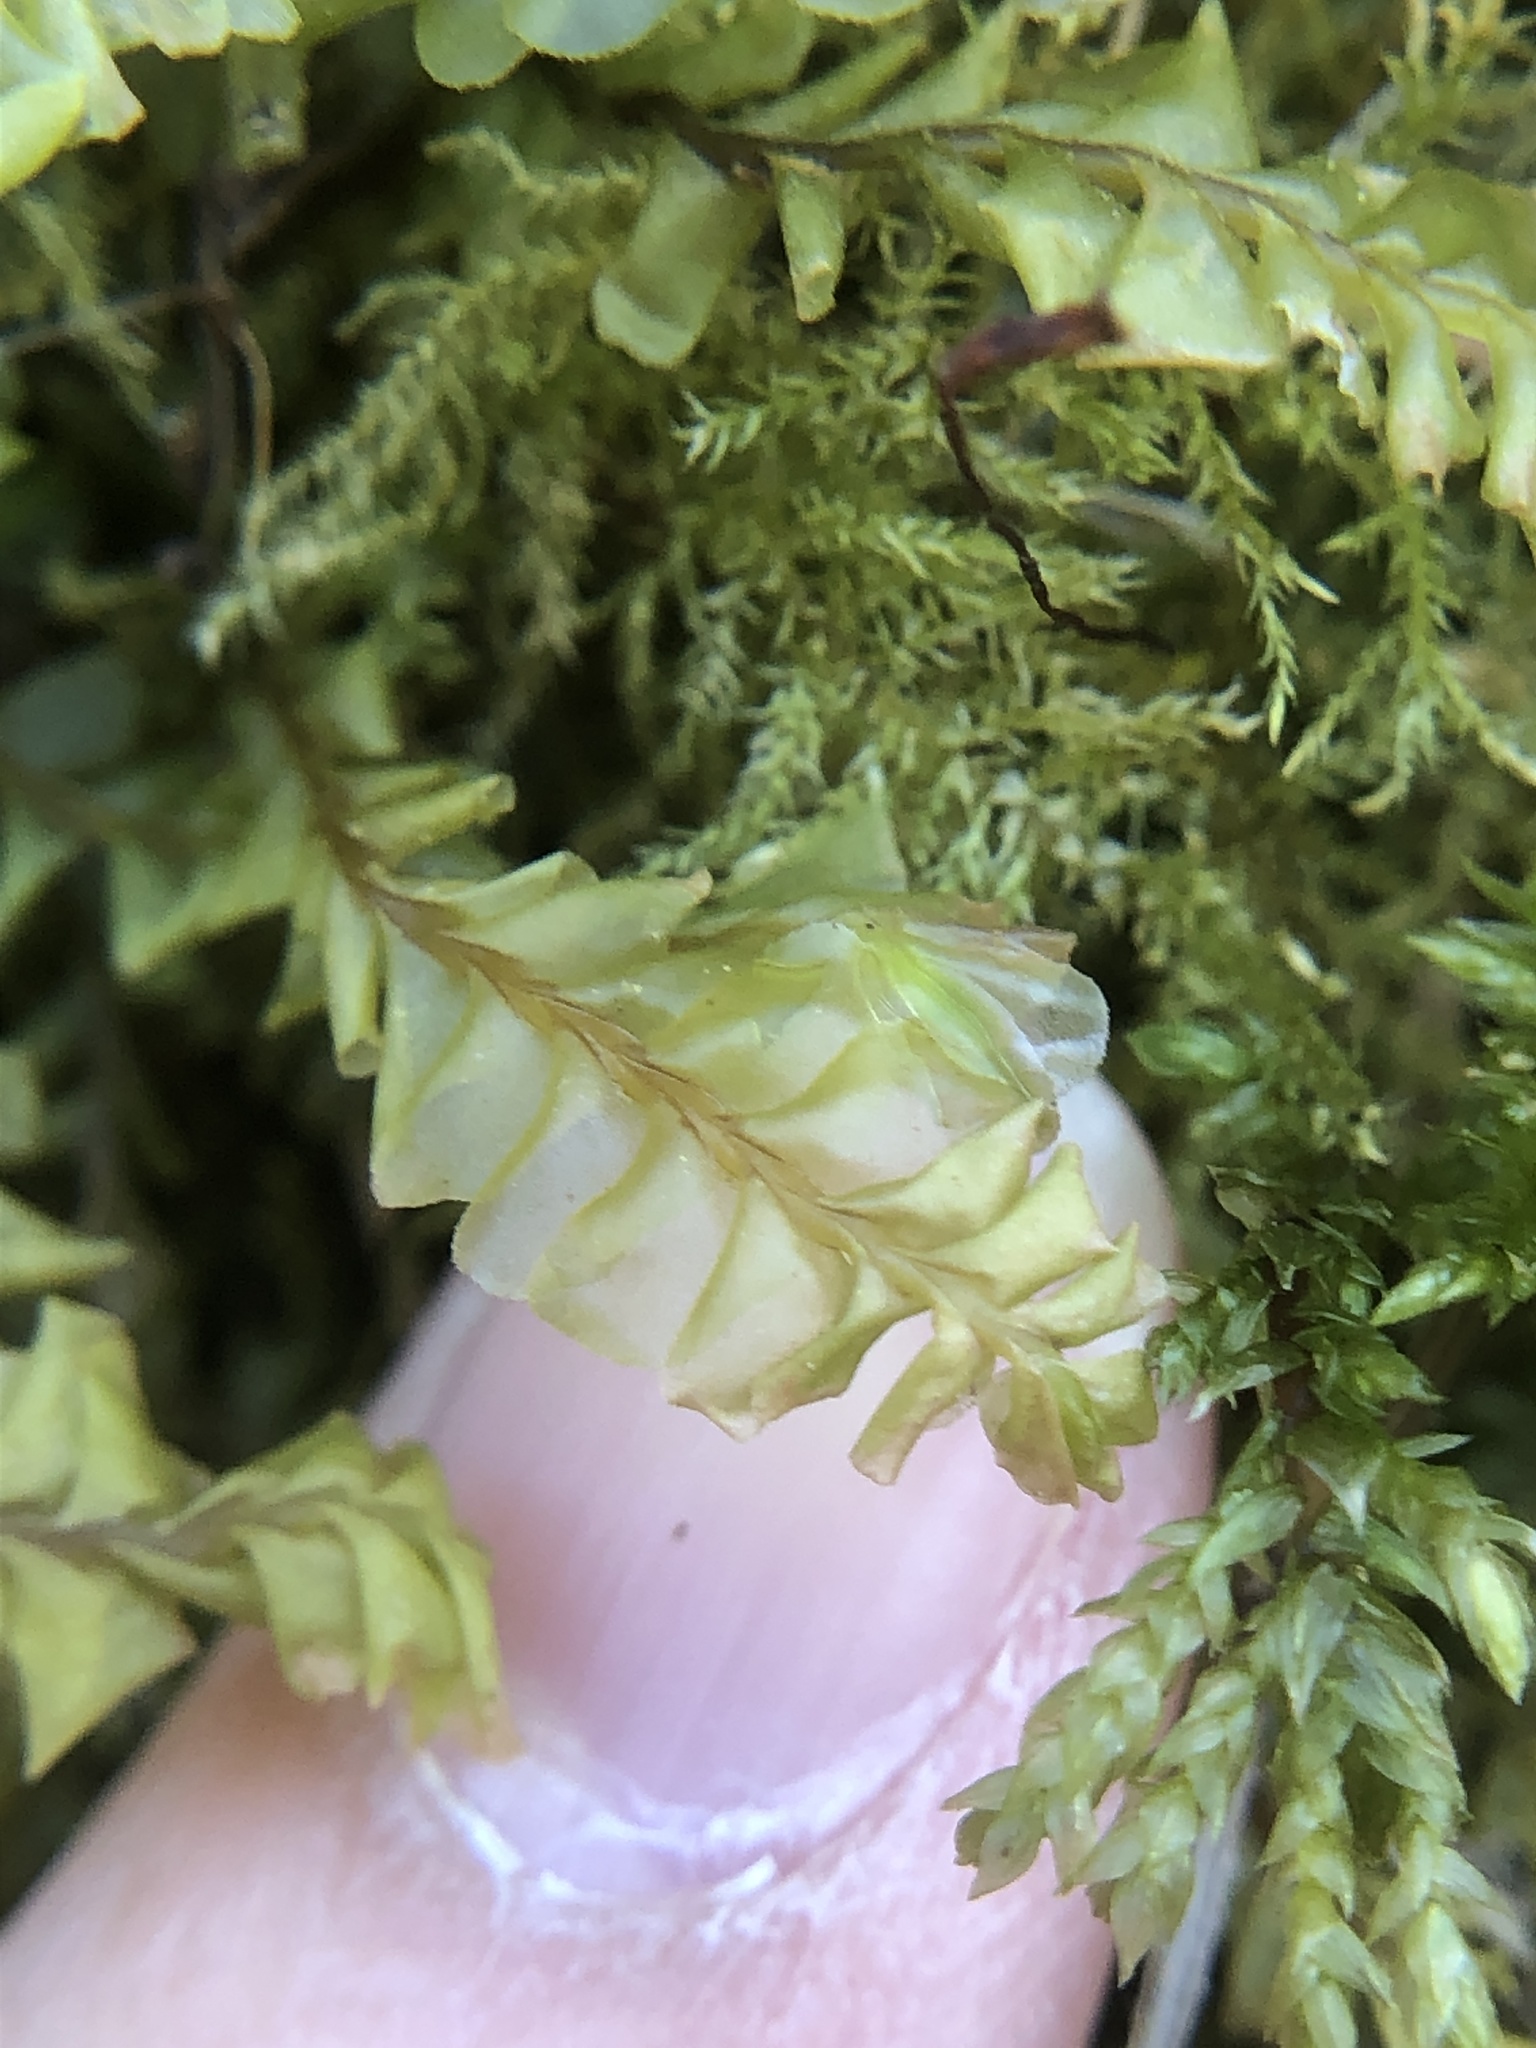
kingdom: Plantae
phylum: Marchantiophyta
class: Jungermanniopsida
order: Jungermanniales
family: Plagiochilaceae
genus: Plagiochila
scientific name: Plagiochila asplenioides
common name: Greater featherwort
